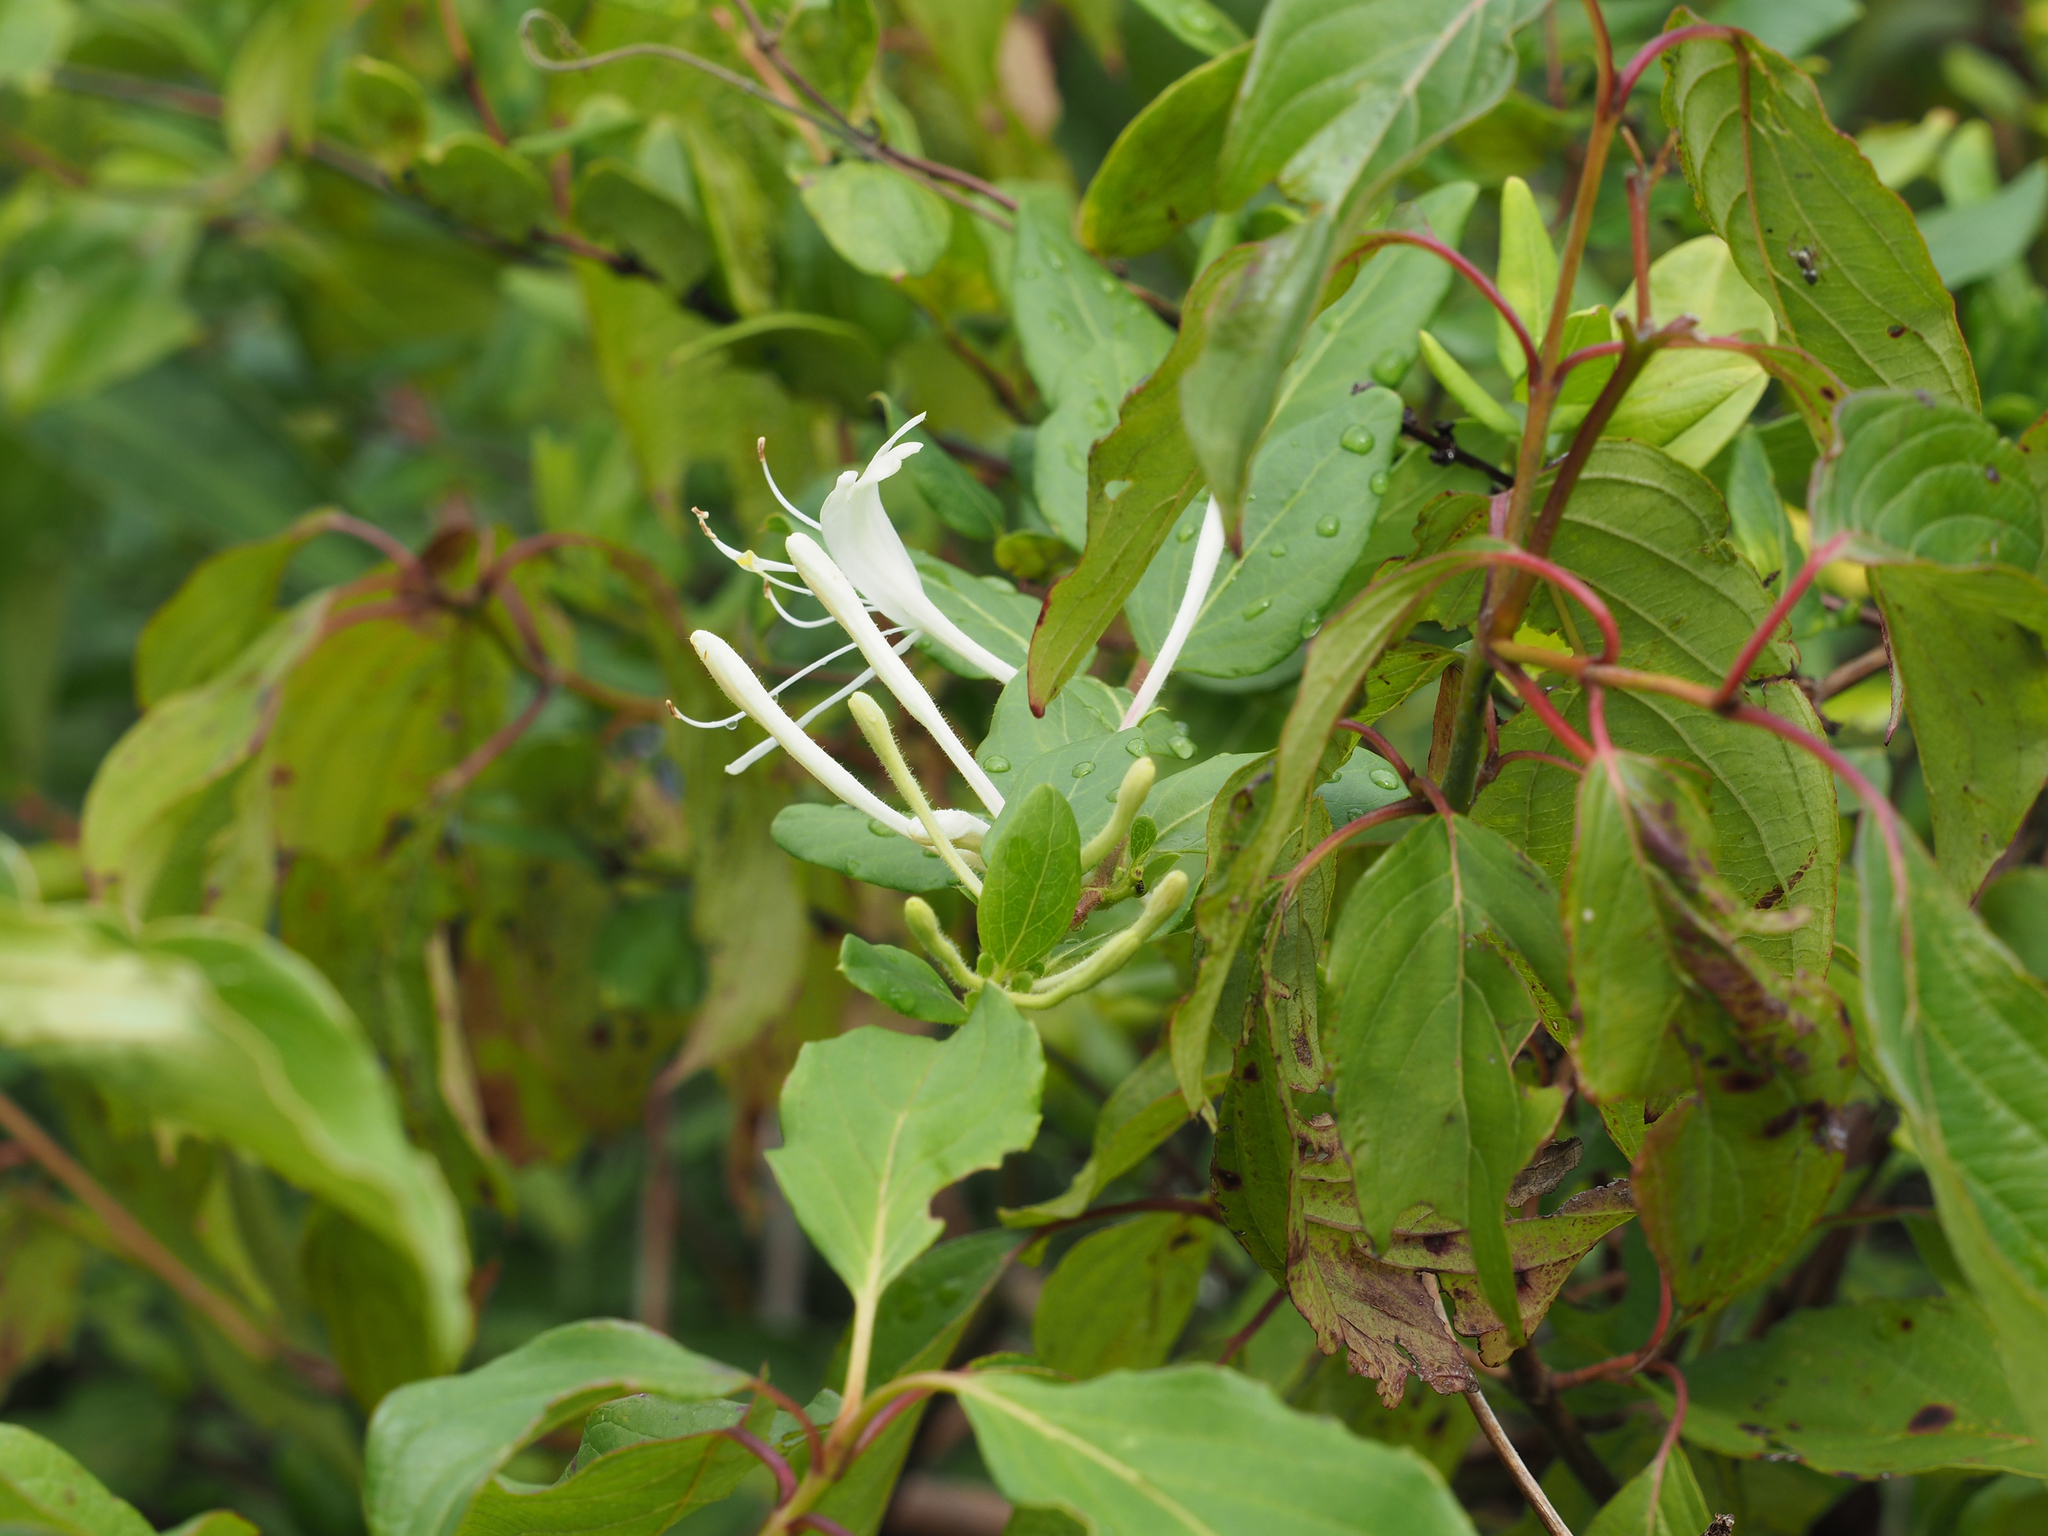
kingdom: Plantae
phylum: Tracheophyta
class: Magnoliopsida
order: Dipsacales
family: Caprifoliaceae
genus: Lonicera
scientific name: Lonicera japonica
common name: Japanese honeysuckle
